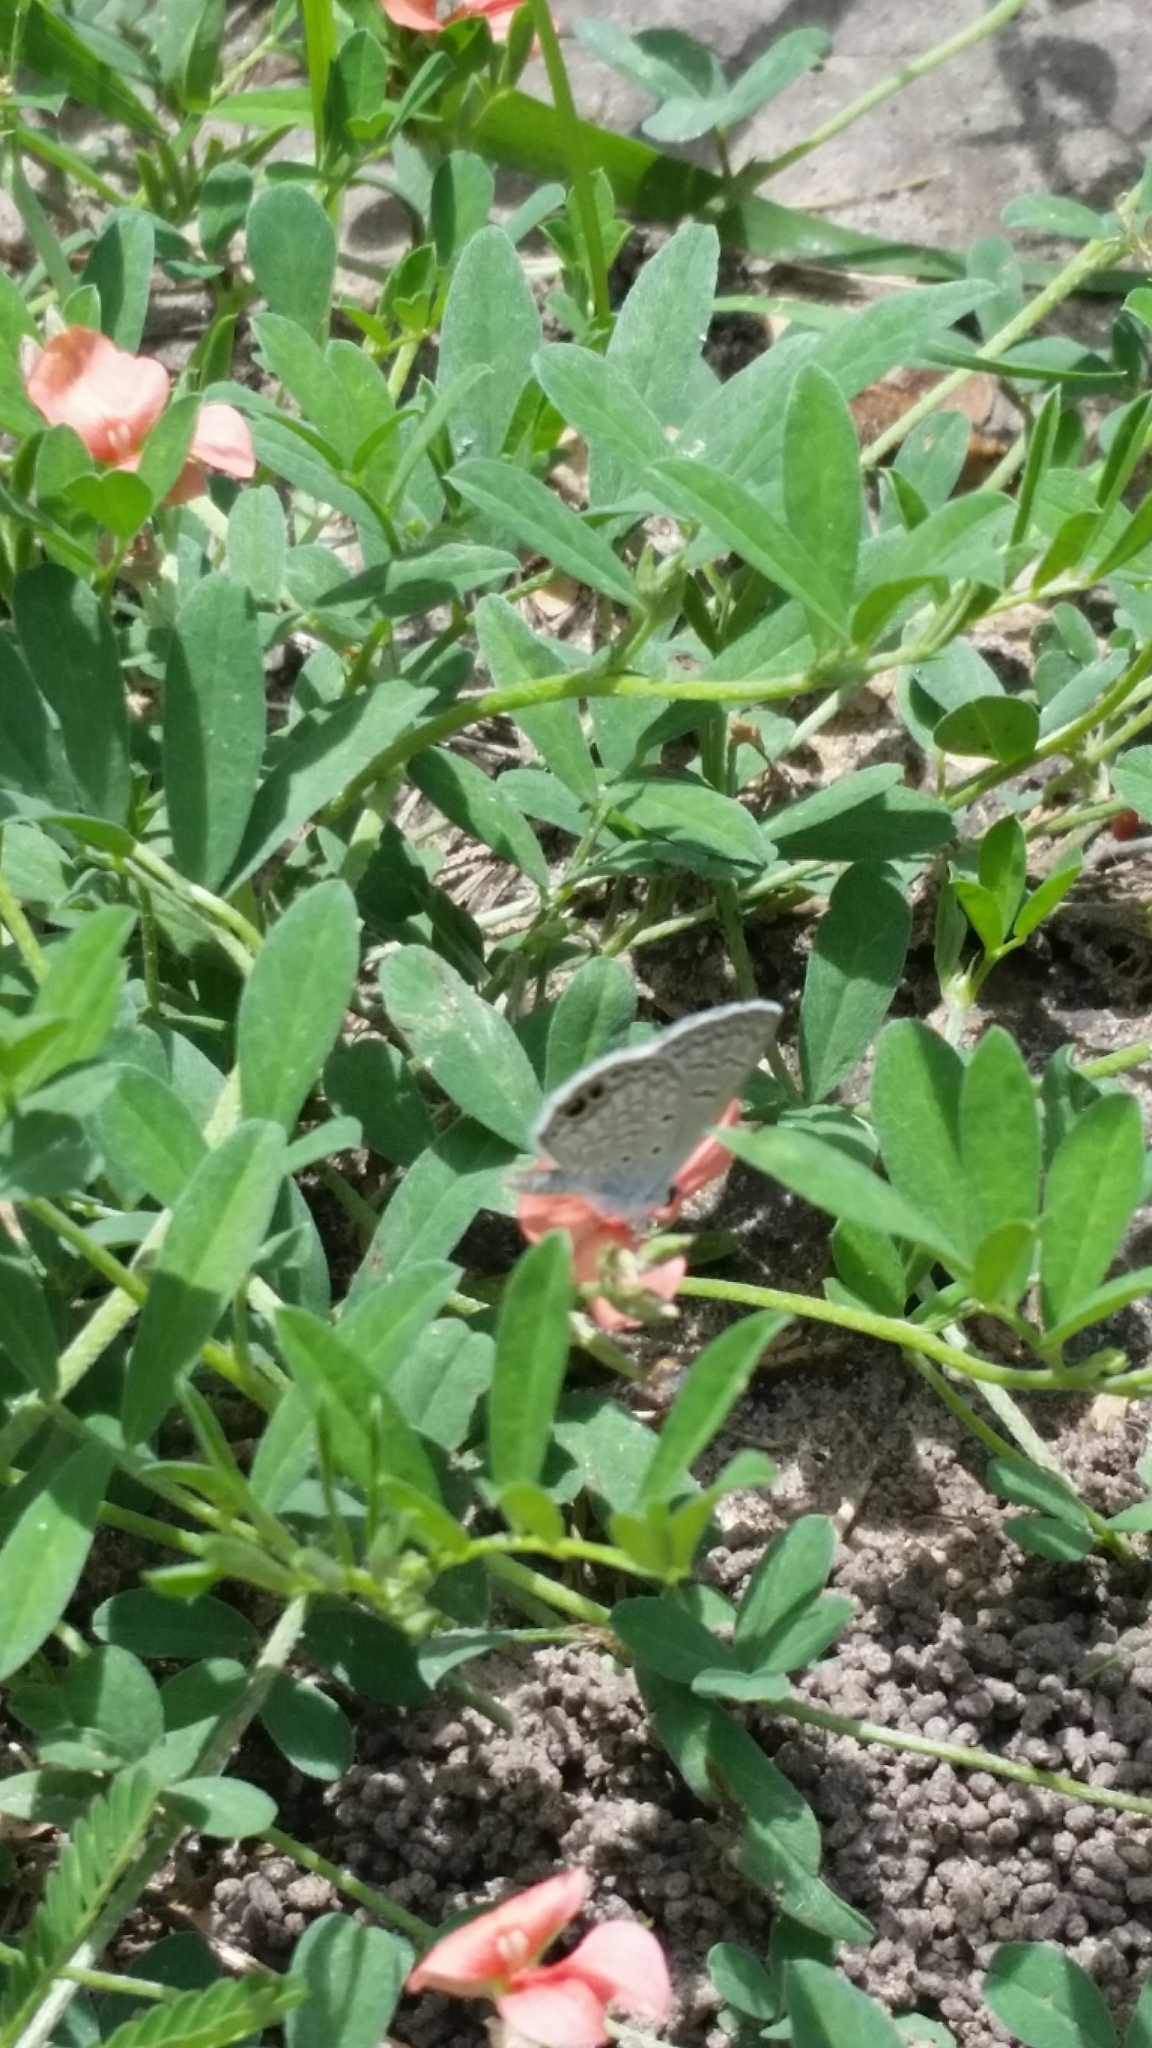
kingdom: Animalia
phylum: Arthropoda
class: Insecta
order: Lepidoptera
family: Lycaenidae
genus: Hemiargus
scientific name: Hemiargus ceraunus
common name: Ceraunus blue
